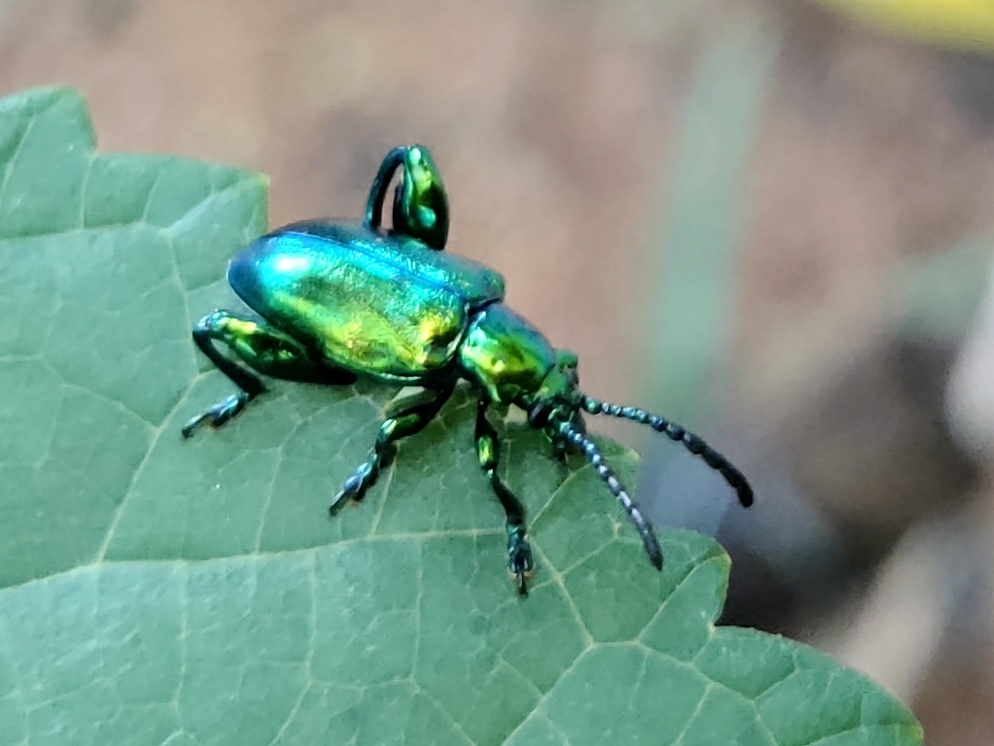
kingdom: Animalia
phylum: Arthropoda
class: Insecta
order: Coleoptera
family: Chrysomelidae
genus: Sagra
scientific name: Sagra femorata
